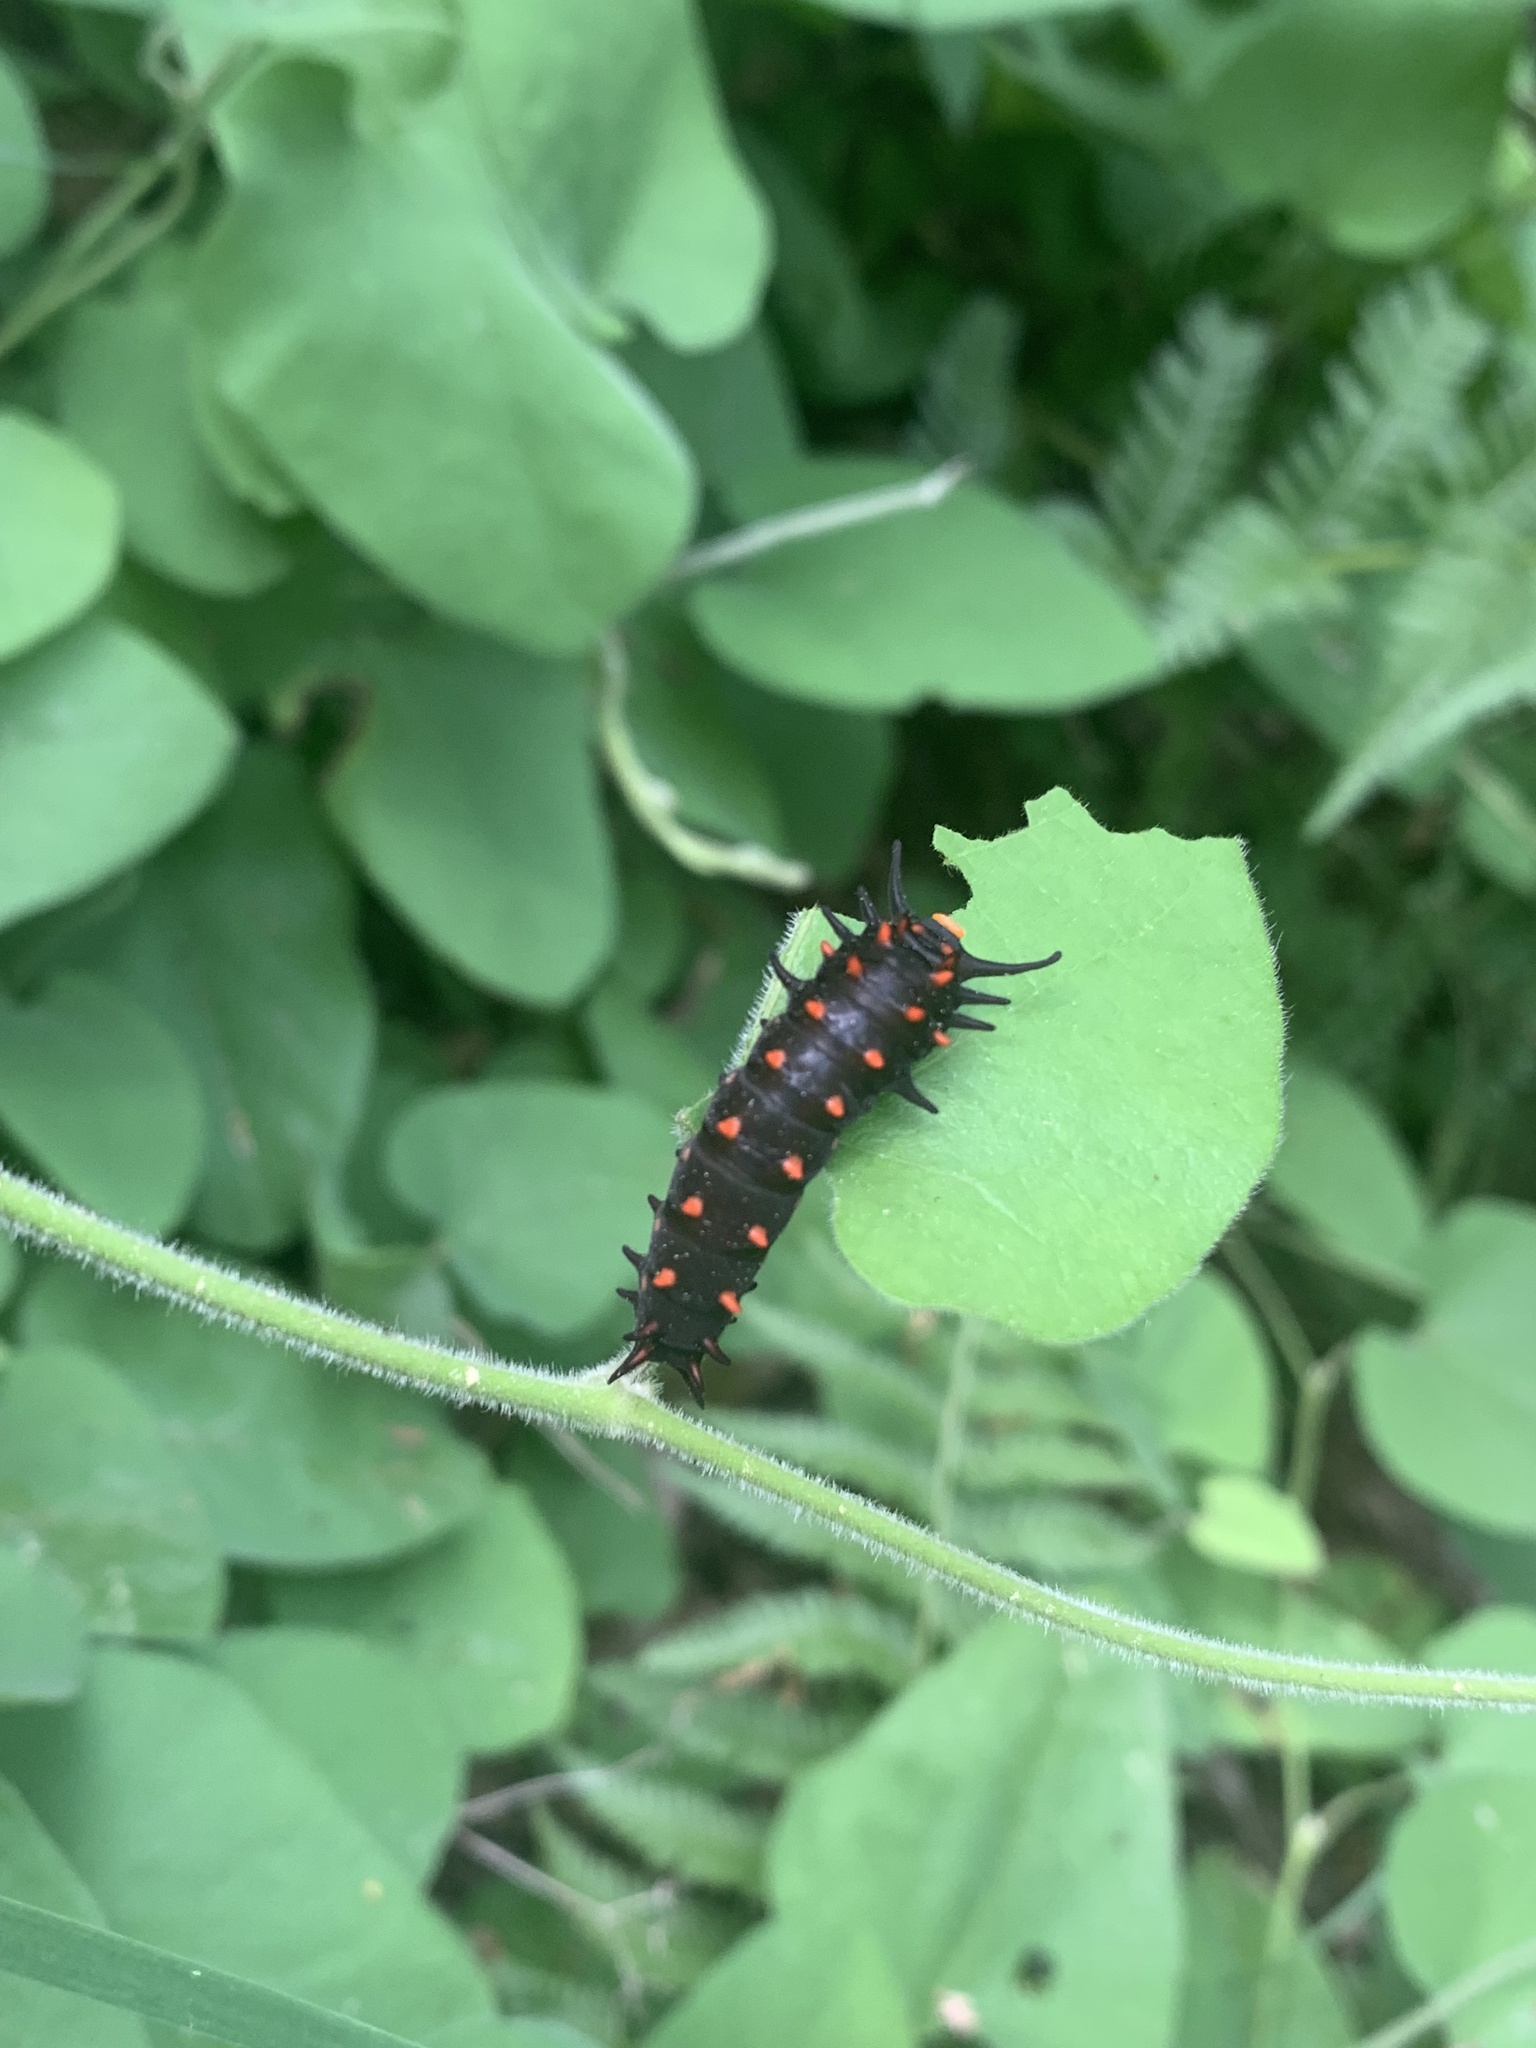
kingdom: Animalia
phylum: Arthropoda
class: Insecta
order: Lepidoptera
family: Papilionidae
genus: Battus
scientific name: Battus philenor
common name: Pipevine swallowtail
